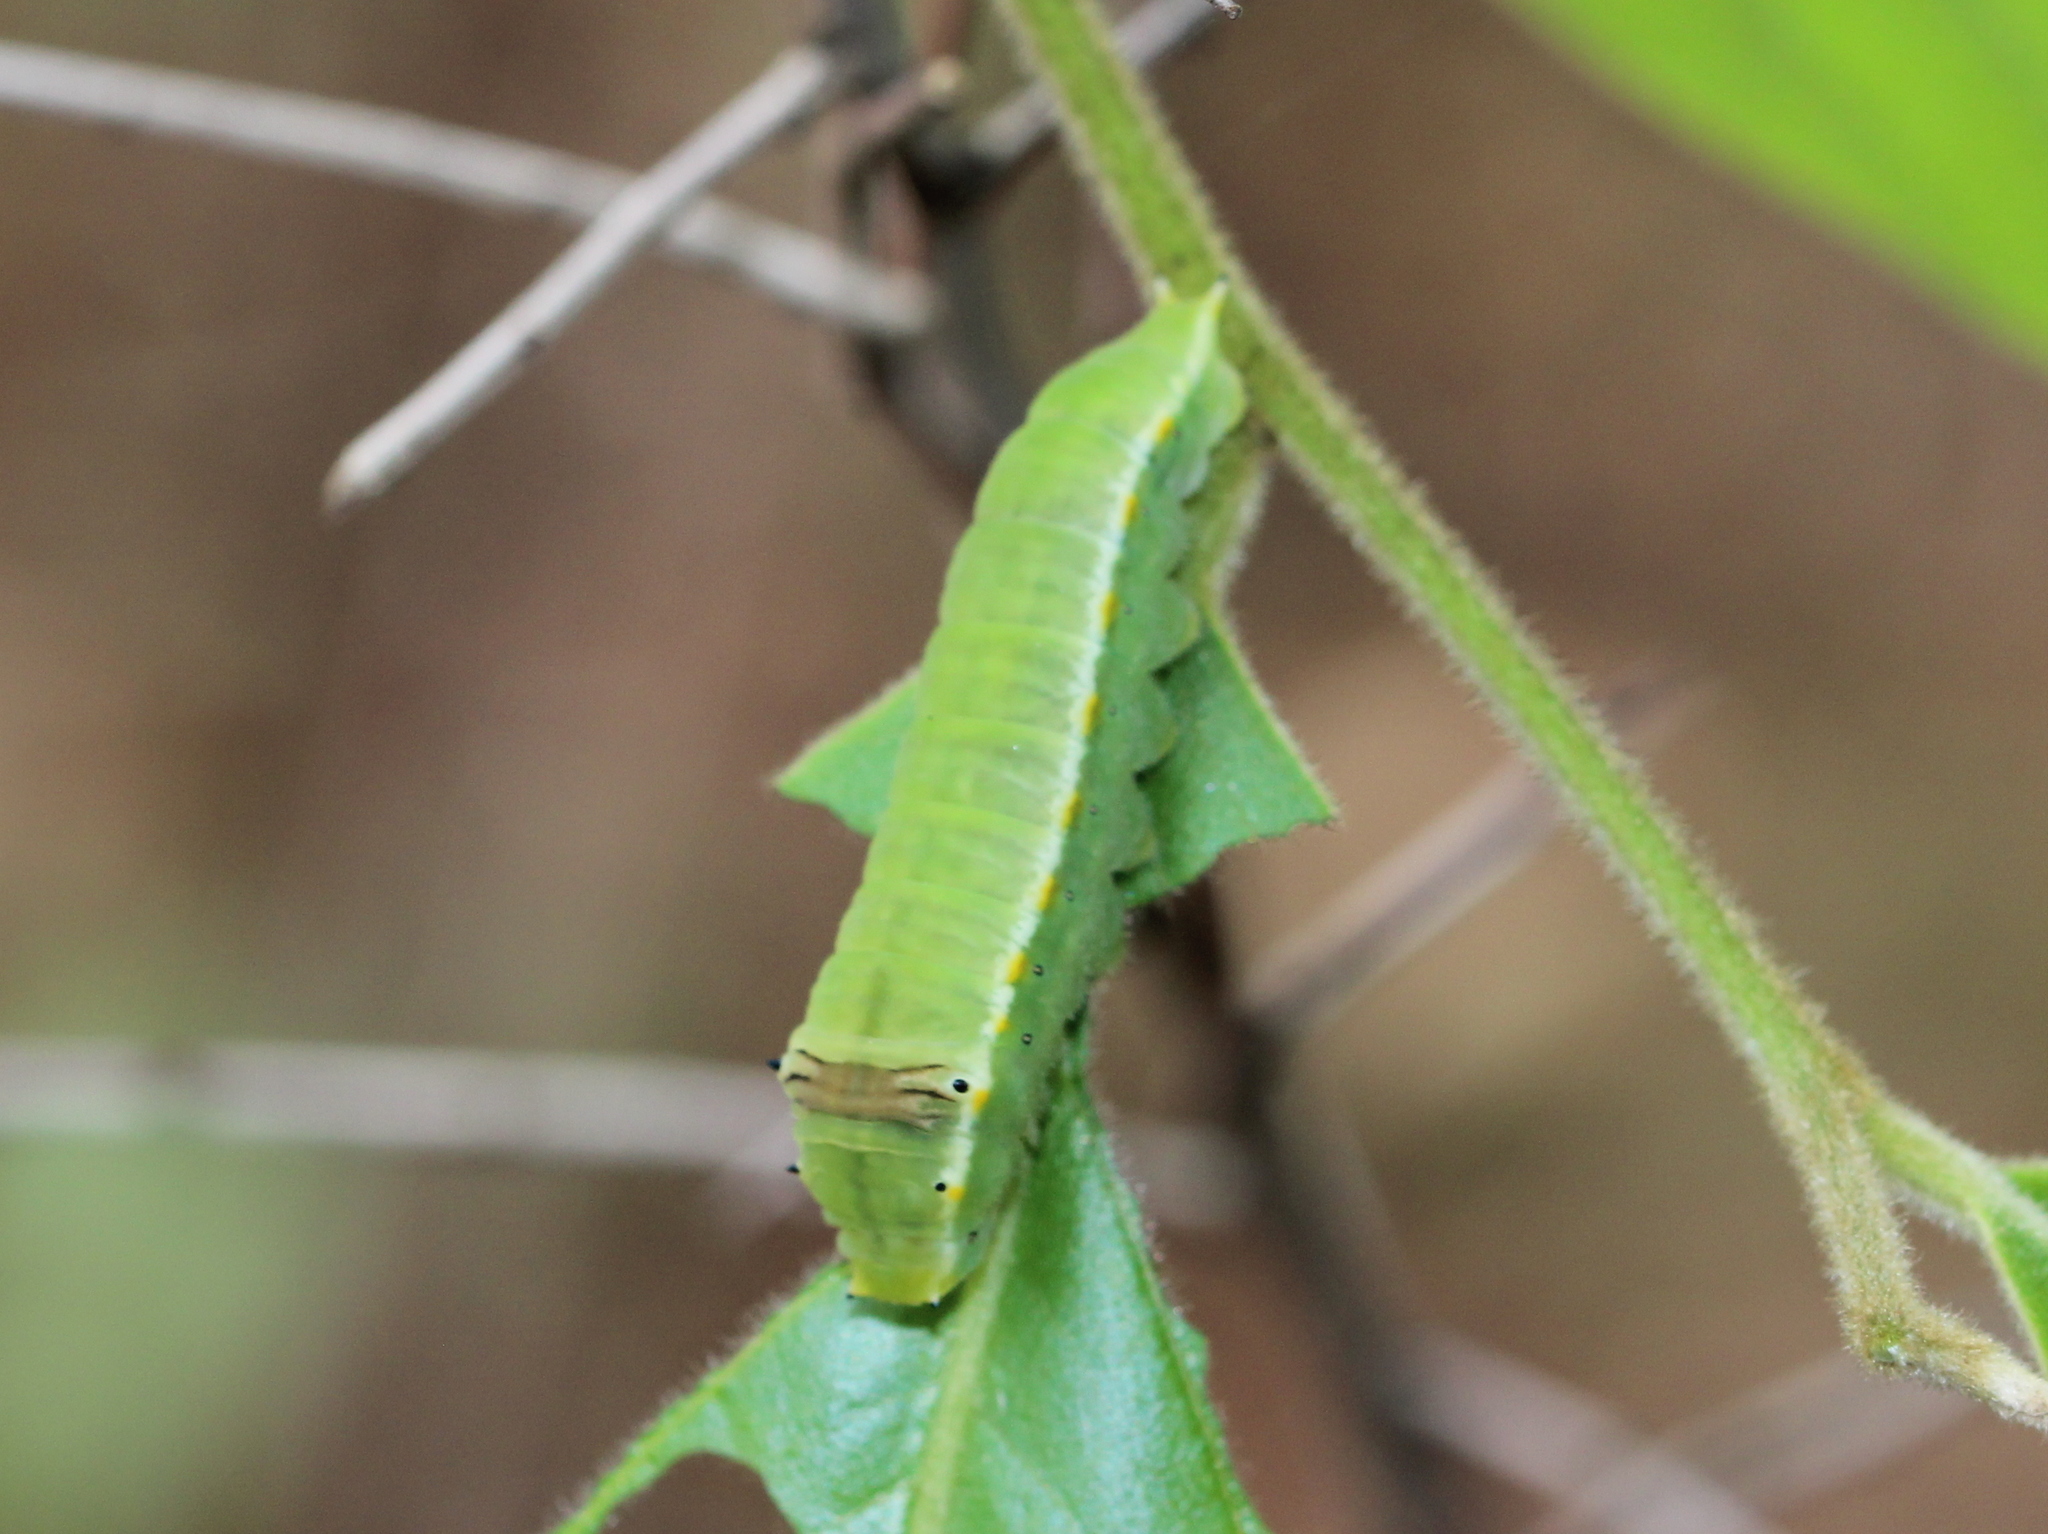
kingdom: Animalia
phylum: Arthropoda
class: Insecta
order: Lepidoptera
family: Papilionidae
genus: Graphium
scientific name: Graphium nomius
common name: Spot swordtail
